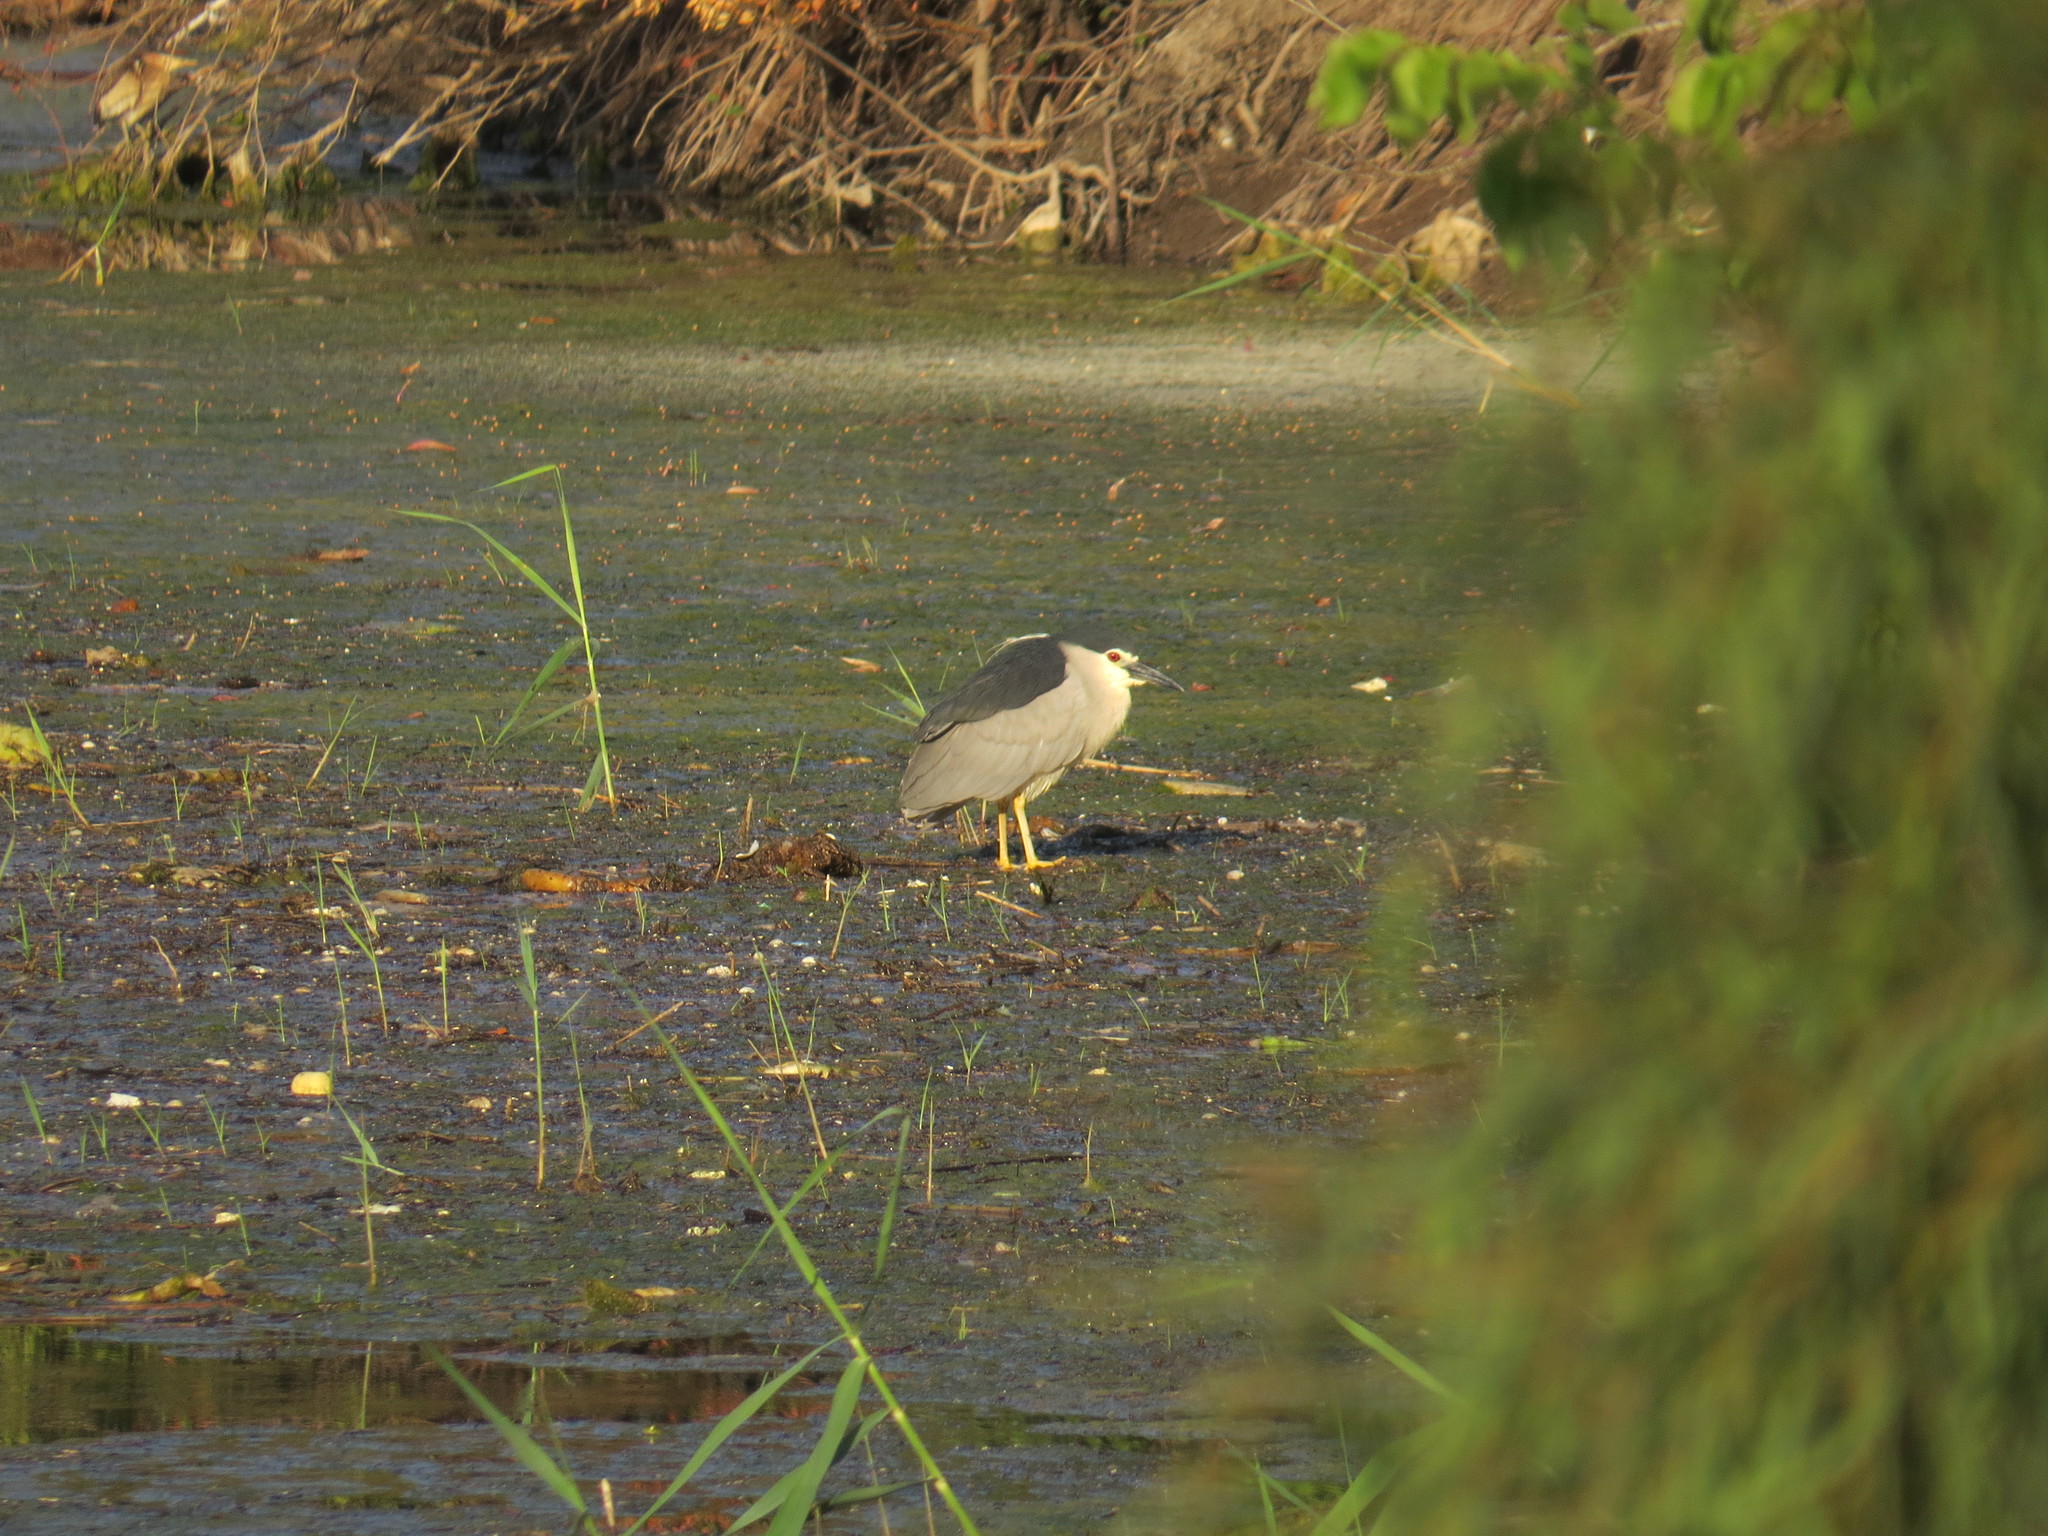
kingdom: Animalia
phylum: Chordata
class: Aves
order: Pelecaniformes
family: Ardeidae
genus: Nycticorax
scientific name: Nycticorax nycticorax
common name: Black-crowned night heron
